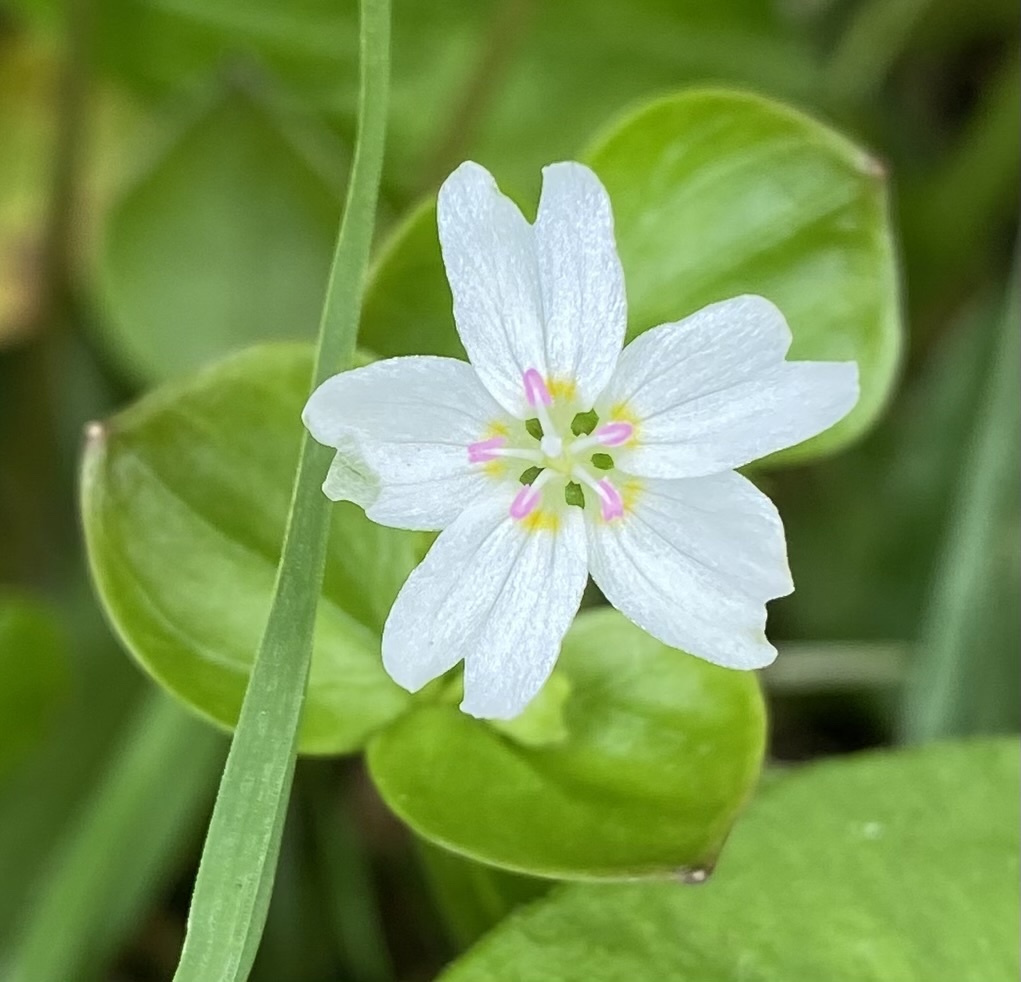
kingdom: Plantae
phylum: Tracheophyta
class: Magnoliopsida
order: Caryophyllales
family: Montiaceae
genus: Claytonia
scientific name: Claytonia sibirica
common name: Pink purslane
